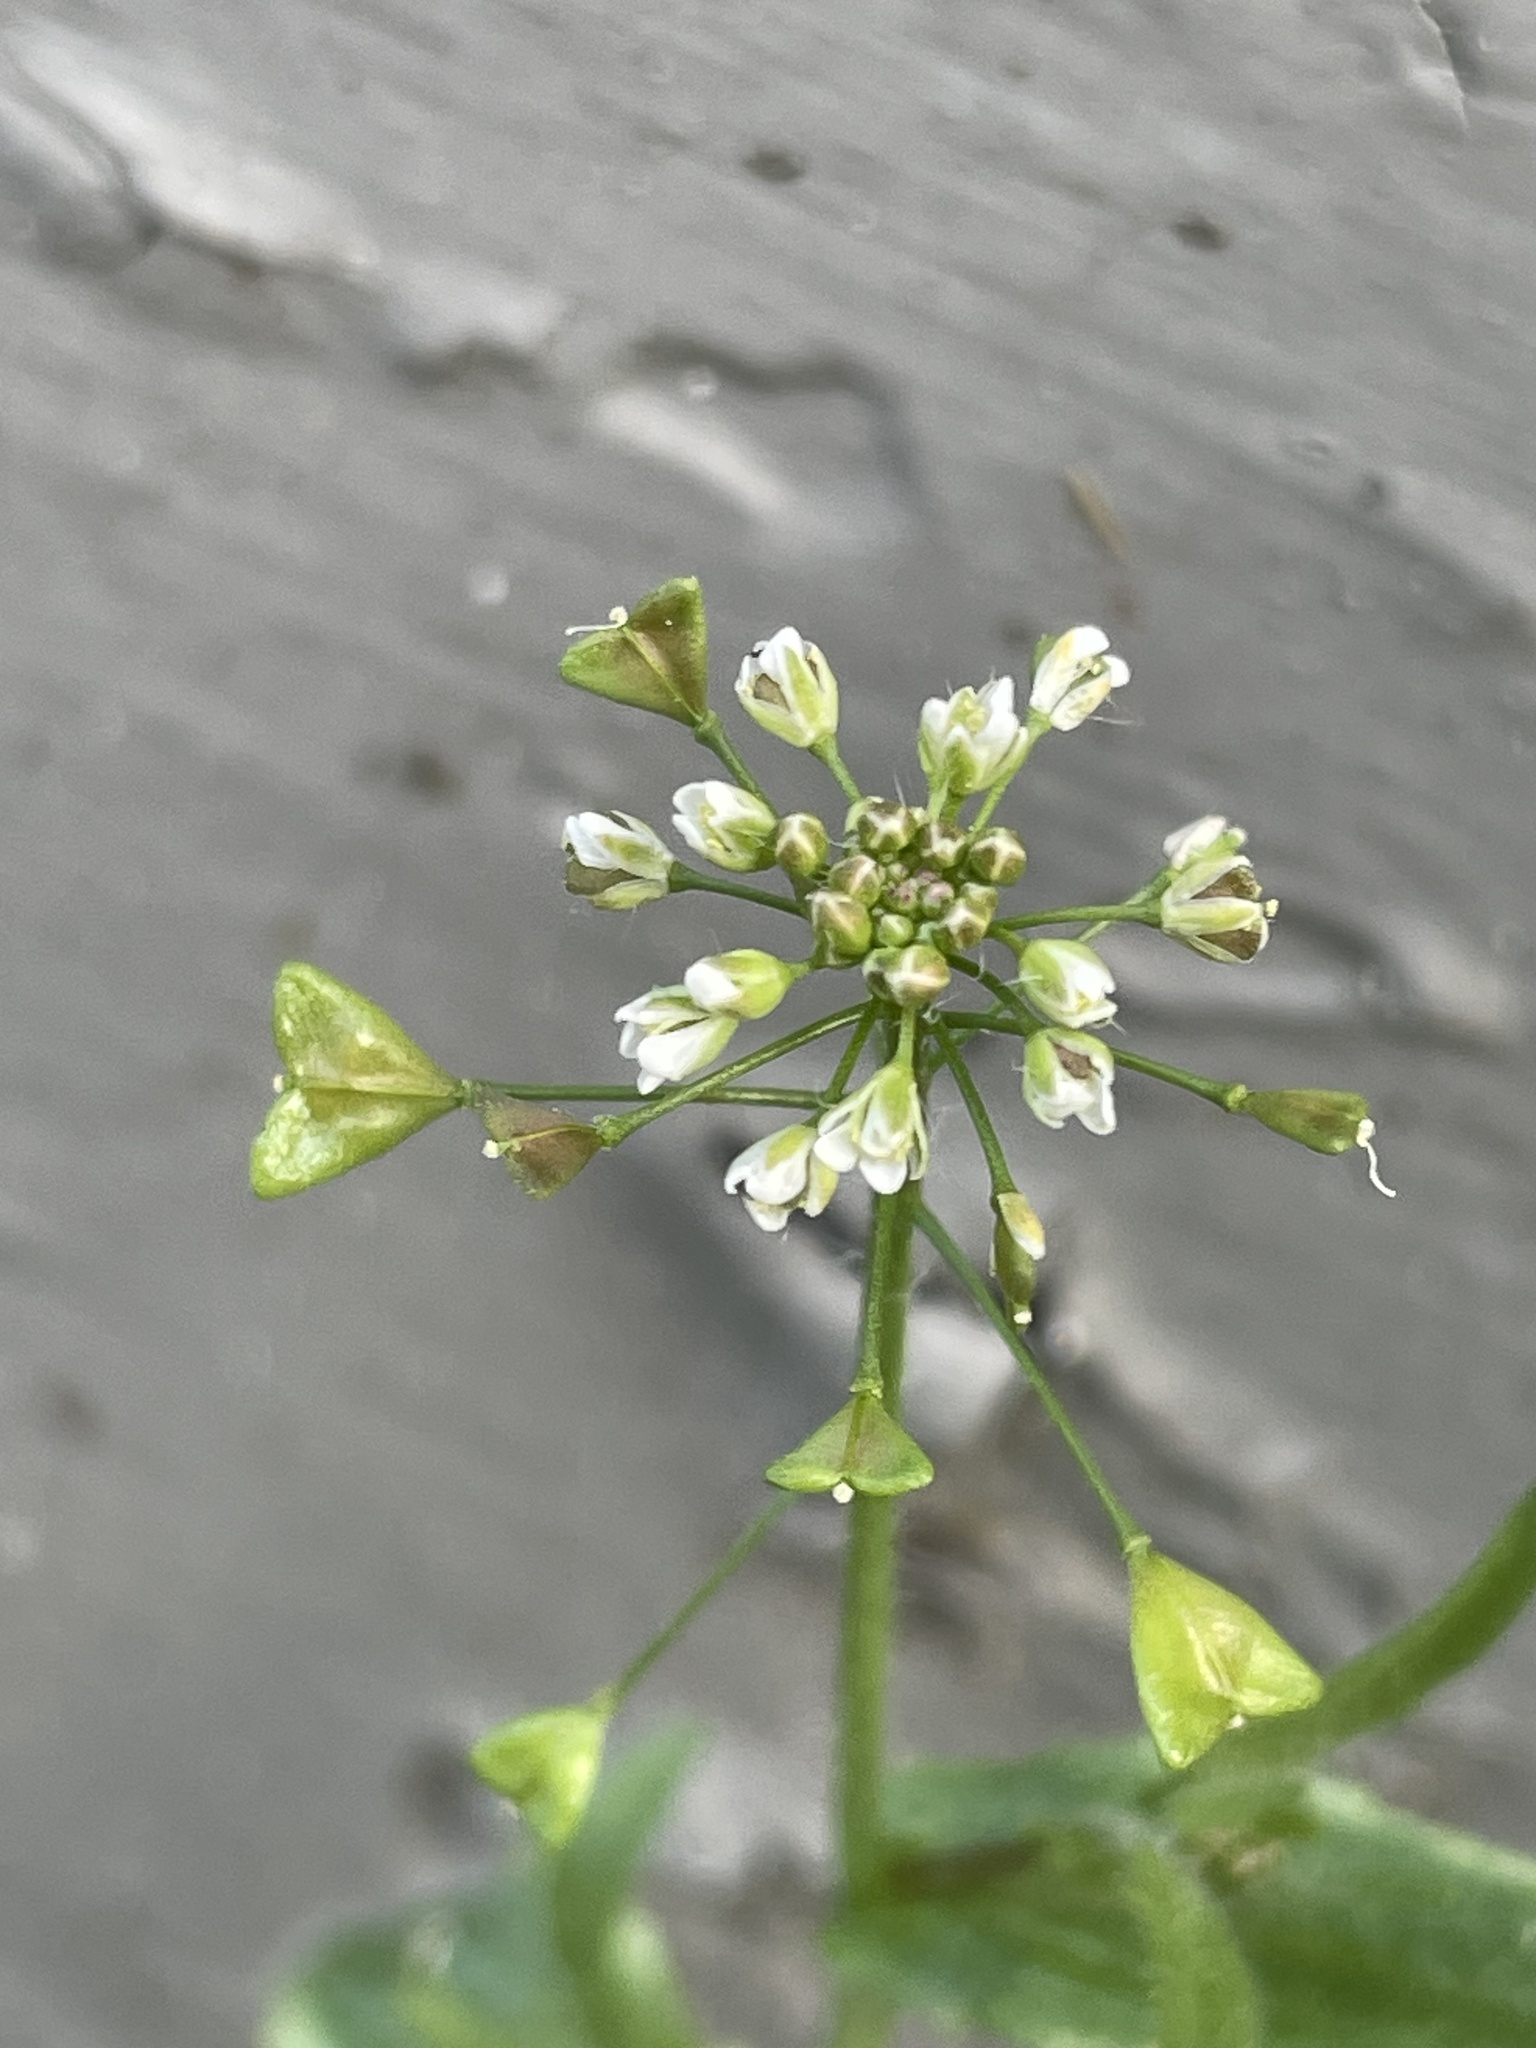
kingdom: Plantae
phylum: Tracheophyta
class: Magnoliopsida
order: Brassicales
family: Brassicaceae
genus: Capsella
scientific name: Capsella bursa-pastoris
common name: Shepherd's purse
